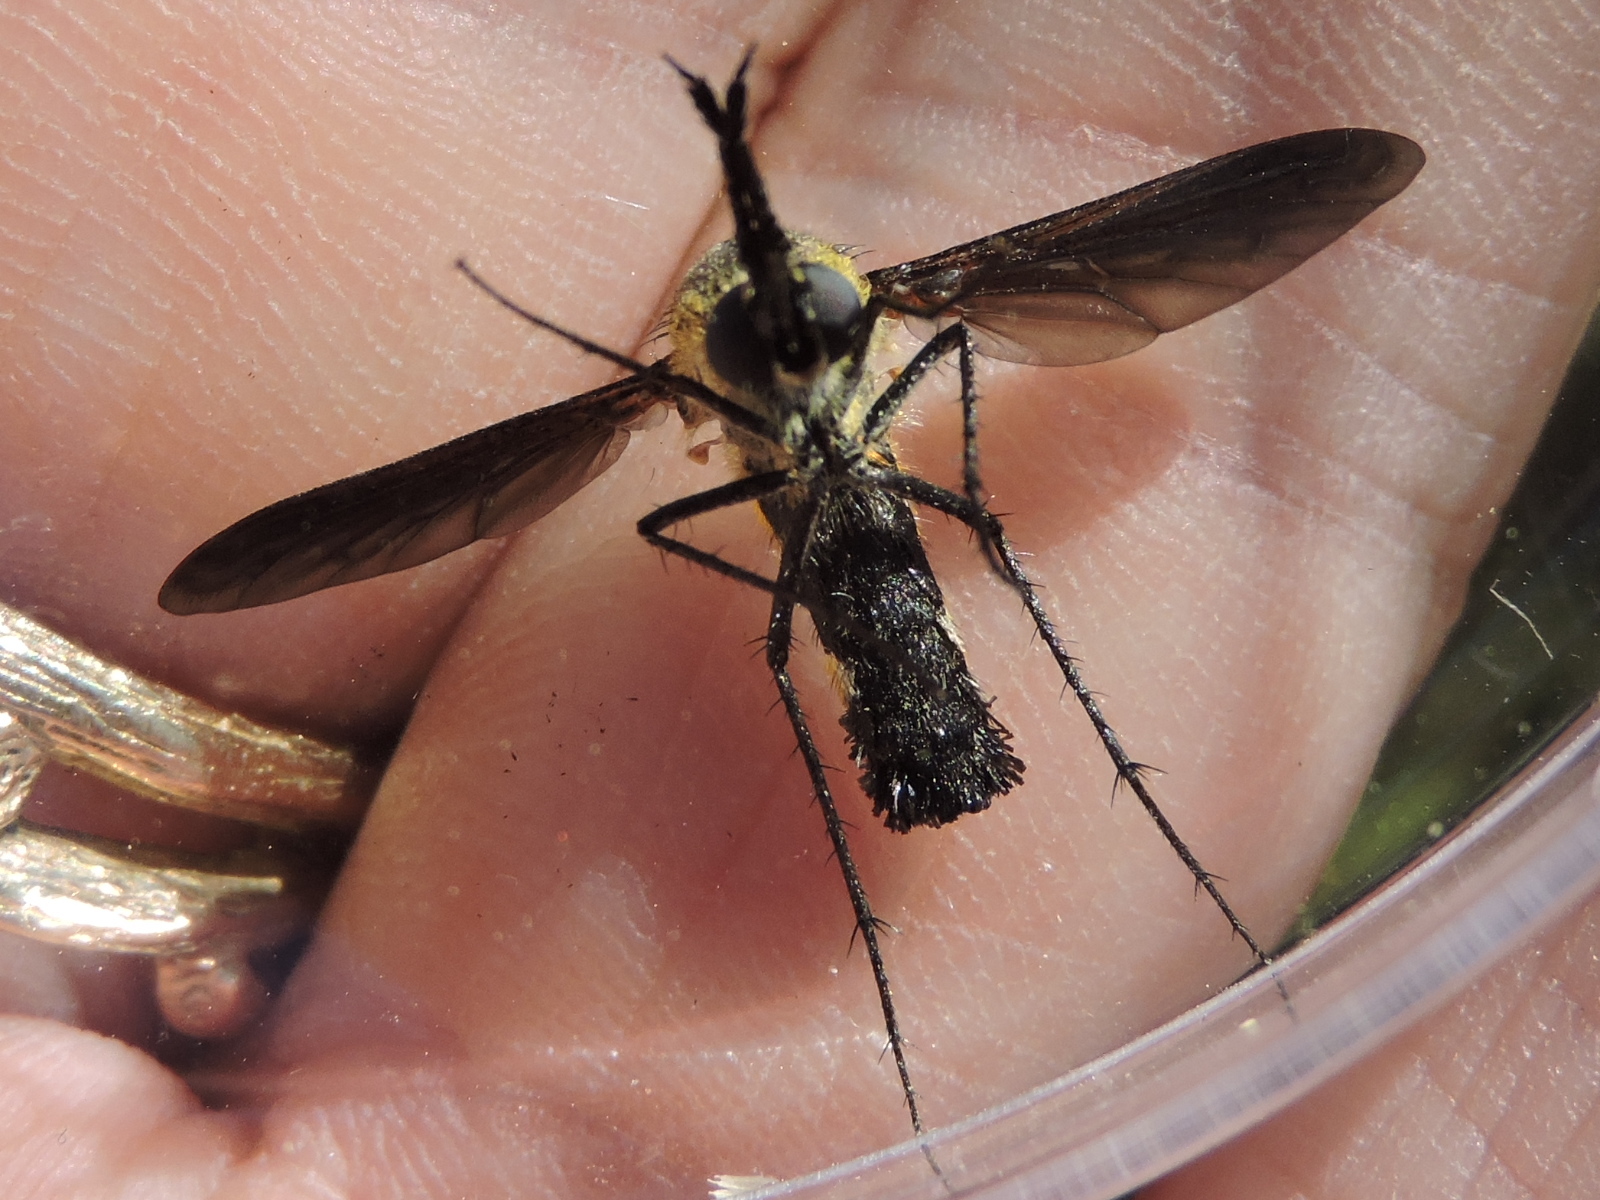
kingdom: Animalia
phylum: Arthropoda
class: Insecta
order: Diptera
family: Bombyliidae
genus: Lepidophora
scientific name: Lepidophora lepidocera
